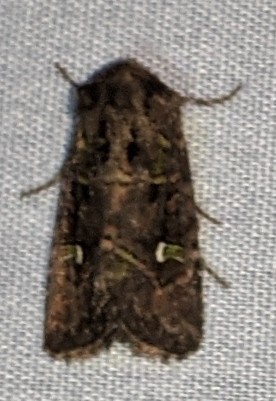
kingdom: Animalia
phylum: Arthropoda
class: Insecta
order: Lepidoptera
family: Noctuidae
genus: Lacinipolia
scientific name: Lacinipolia renigera
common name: Kidney-spotted minor
